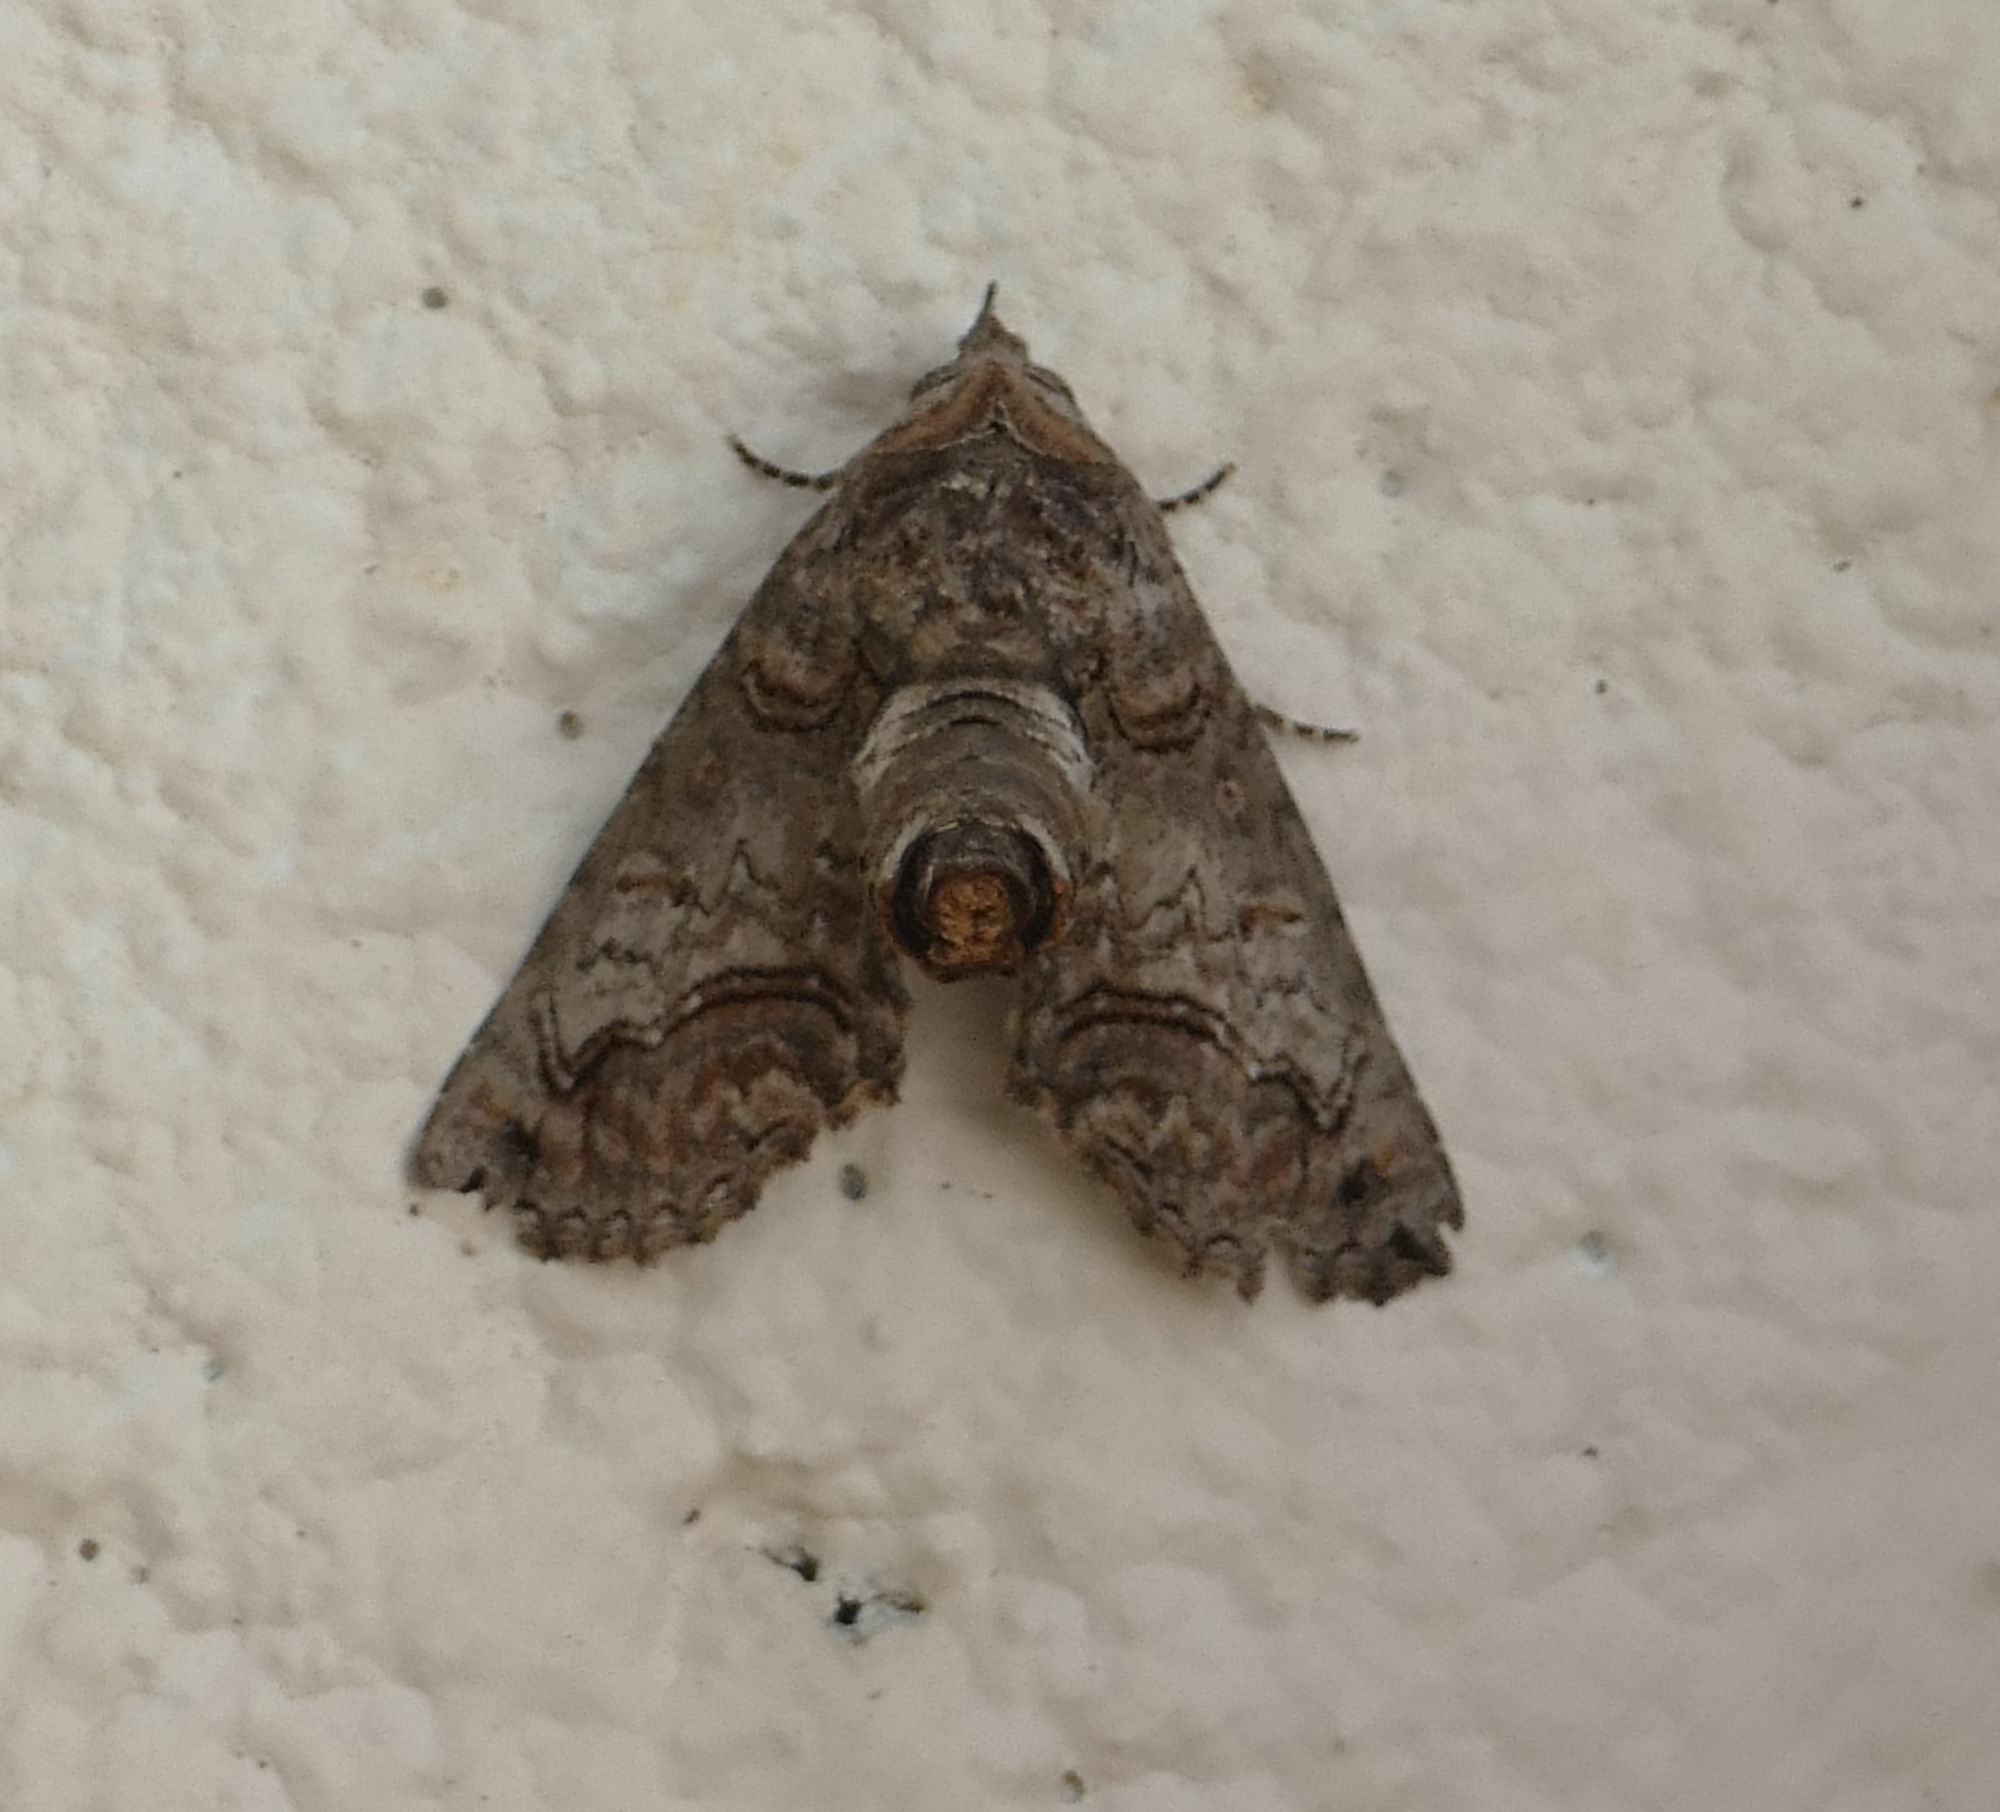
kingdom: Animalia
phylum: Arthropoda
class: Insecta
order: Lepidoptera
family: Euteliidae
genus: Paectes
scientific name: Paectes abrostoloides
